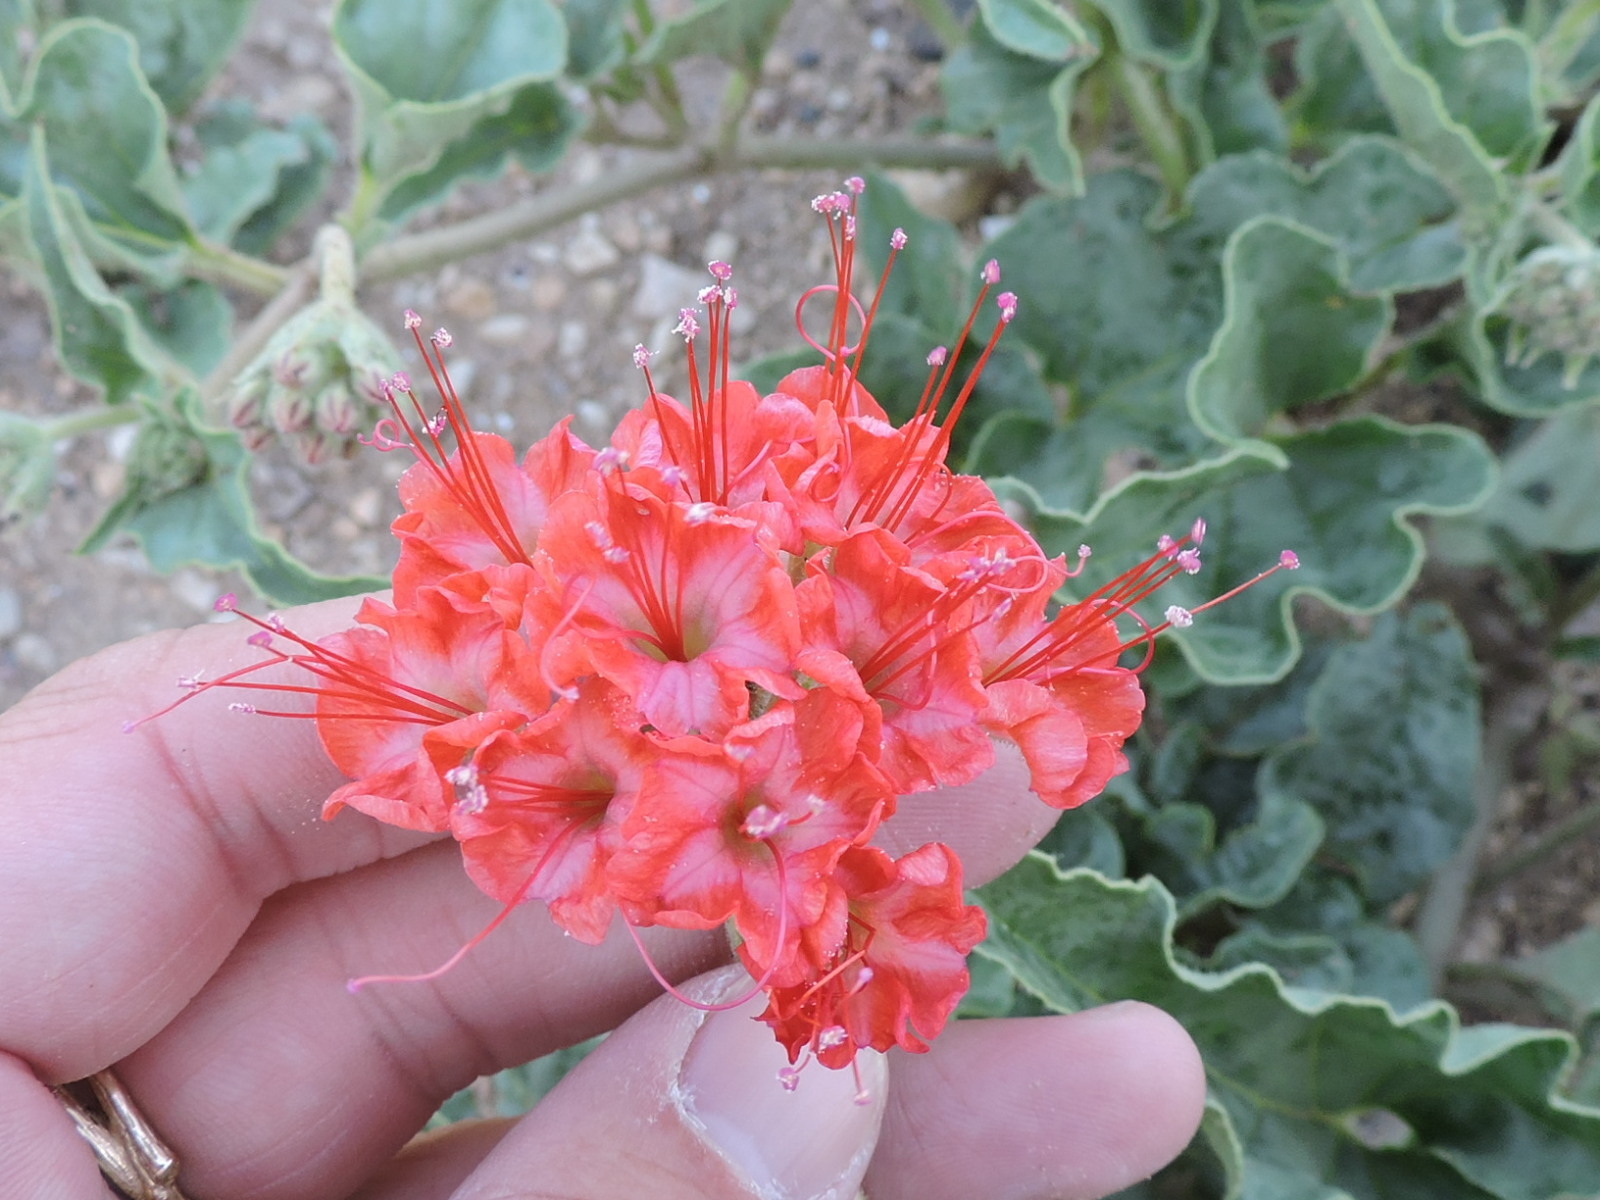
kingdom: Plantae
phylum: Tracheophyta
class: Magnoliopsida
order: Caryophyllales
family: Nyctaginaceae
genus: Nyctaginia
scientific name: Nyctaginia capitata
